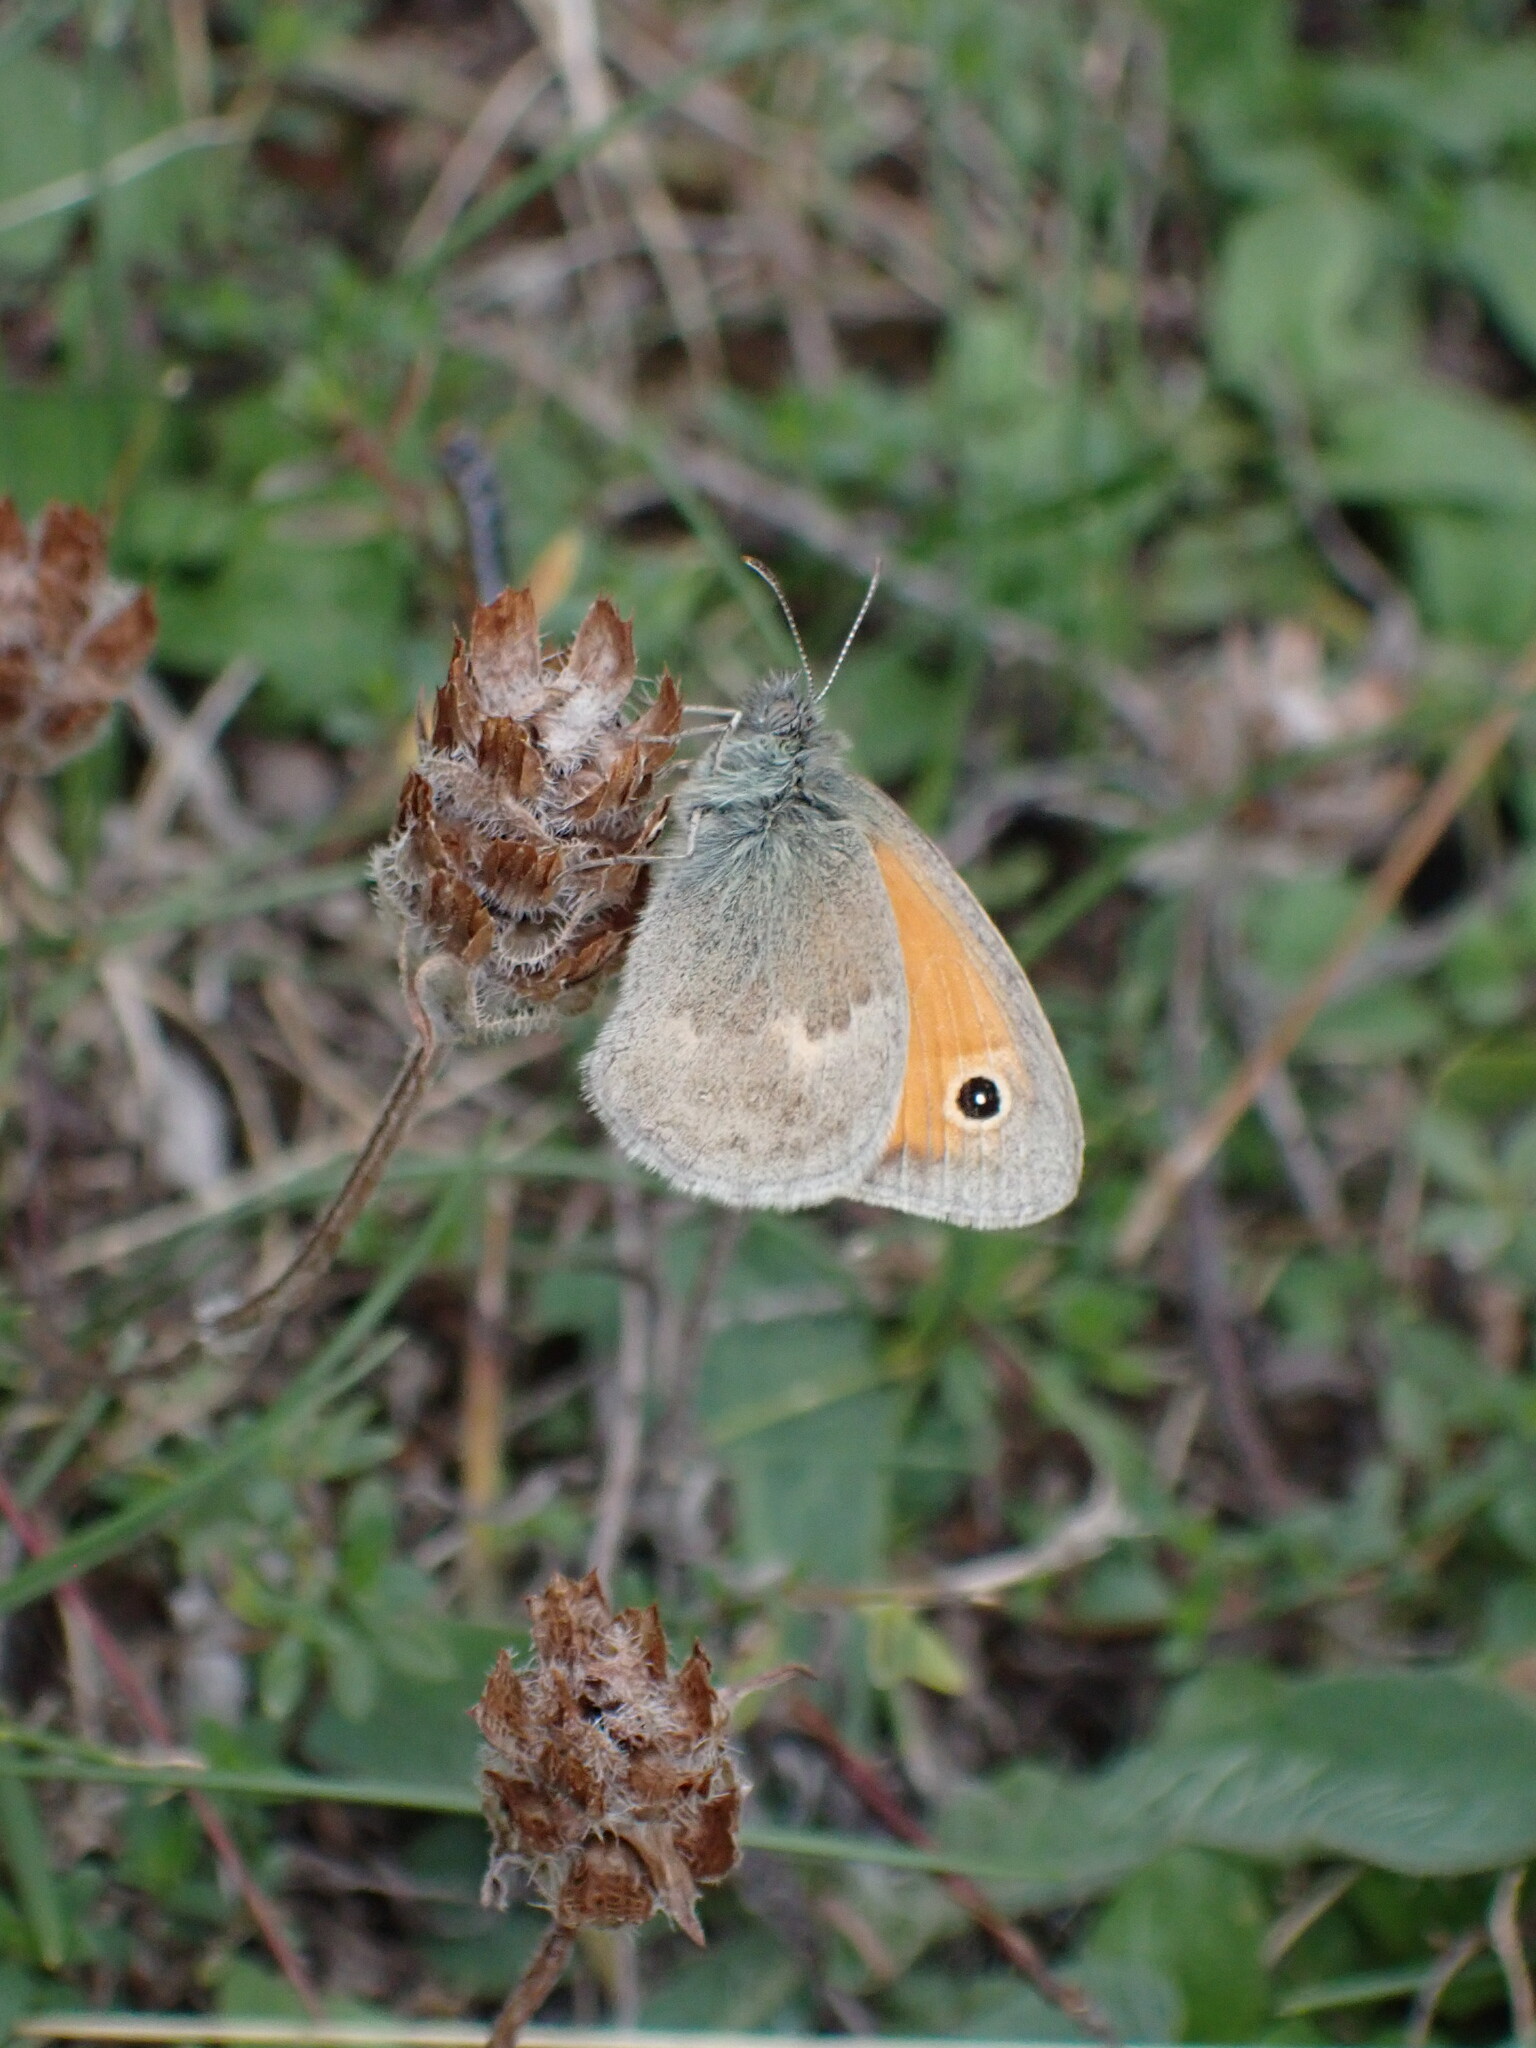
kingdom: Animalia
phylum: Arthropoda
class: Insecta
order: Lepidoptera
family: Nymphalidae
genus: Coenonympha
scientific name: Coenonympha pamphilus
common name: Small heath
